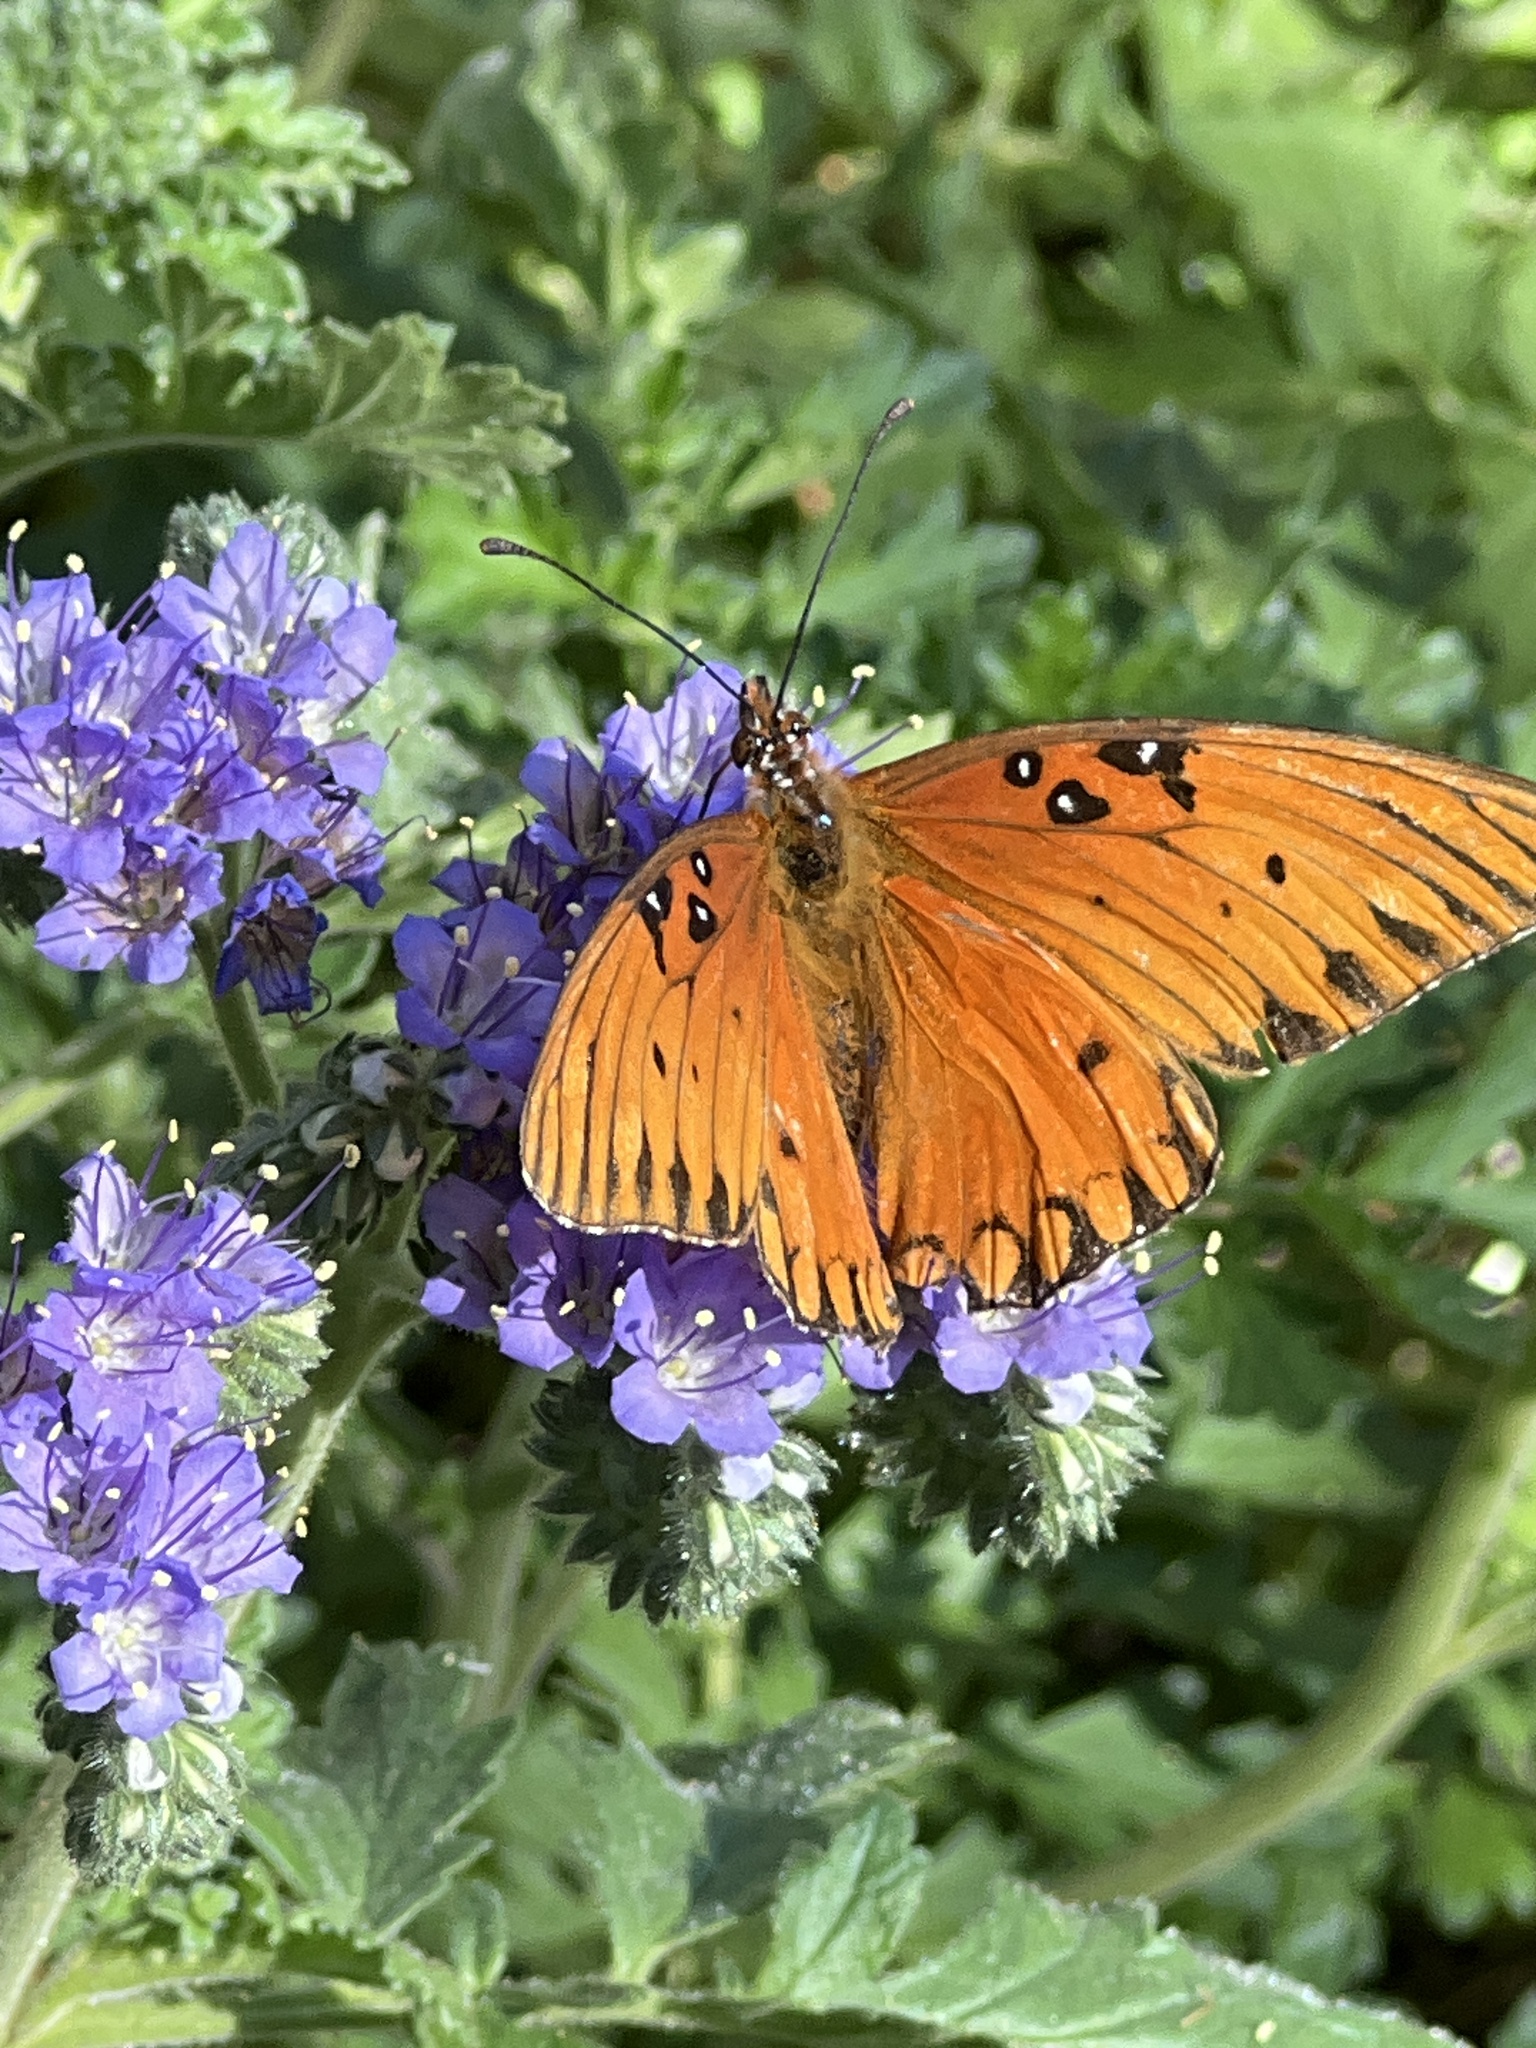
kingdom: Animalia
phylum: Arthropoda
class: Insecta
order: Lepidoptera
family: Nymphalidae
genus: Dione
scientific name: Dione vanillae
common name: Gulf fritillary
